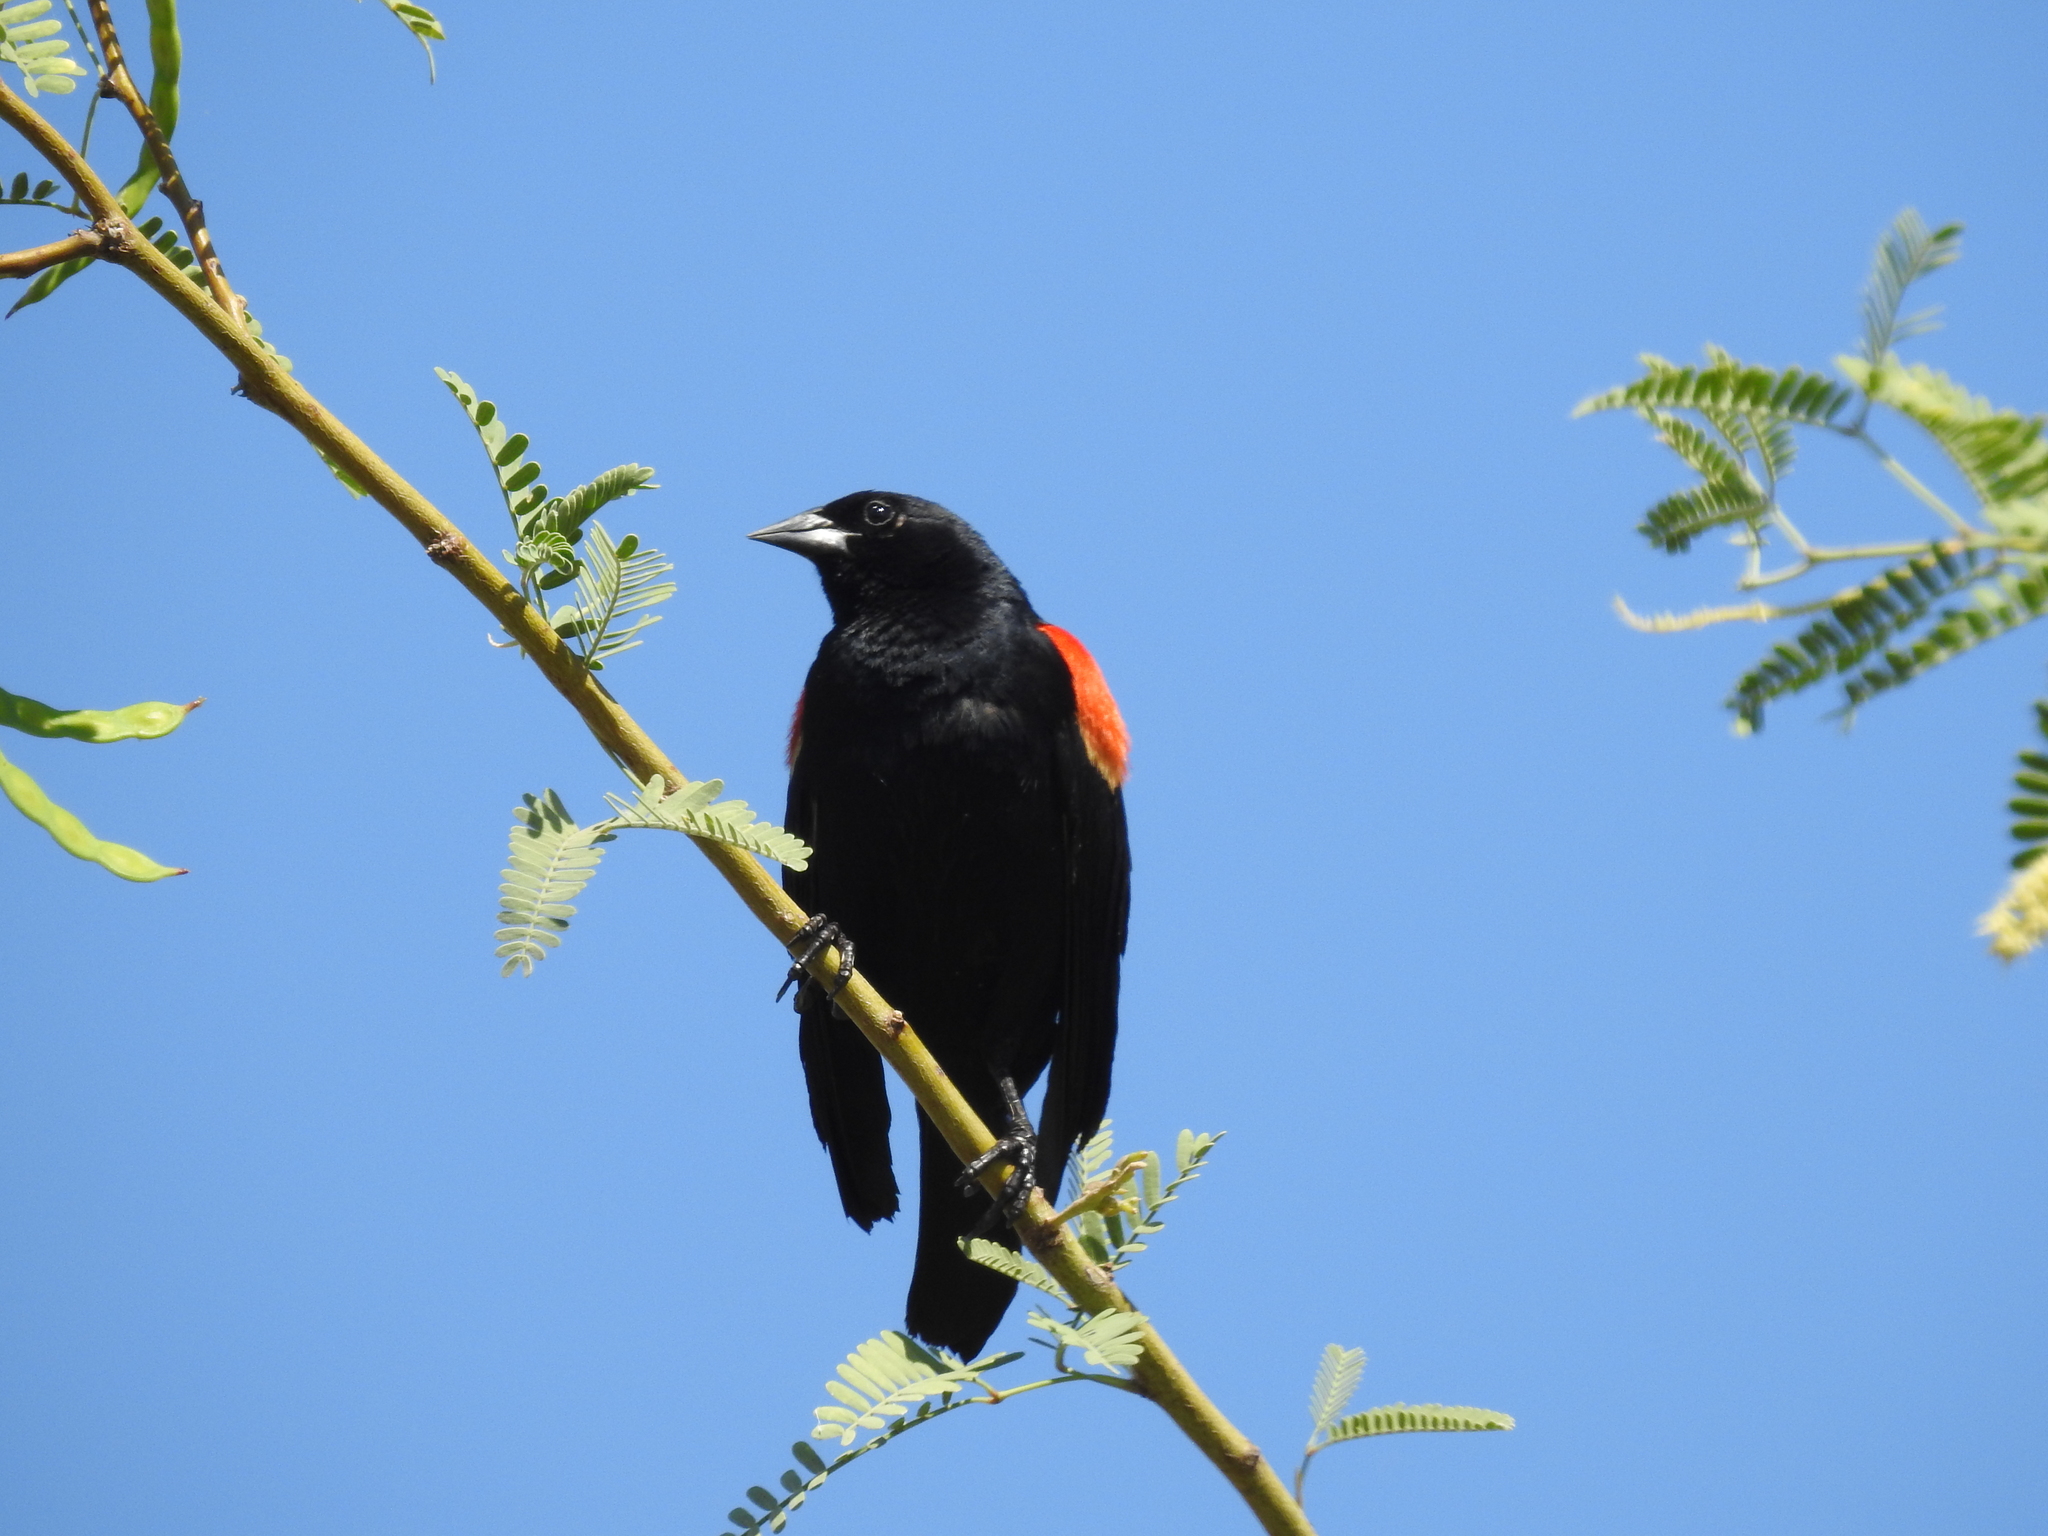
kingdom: Animalia
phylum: Chordata
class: Aves
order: Passeriformes
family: Icteridae
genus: Agelaius
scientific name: Agelaius phoeniceus
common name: Red-winged blackbird
